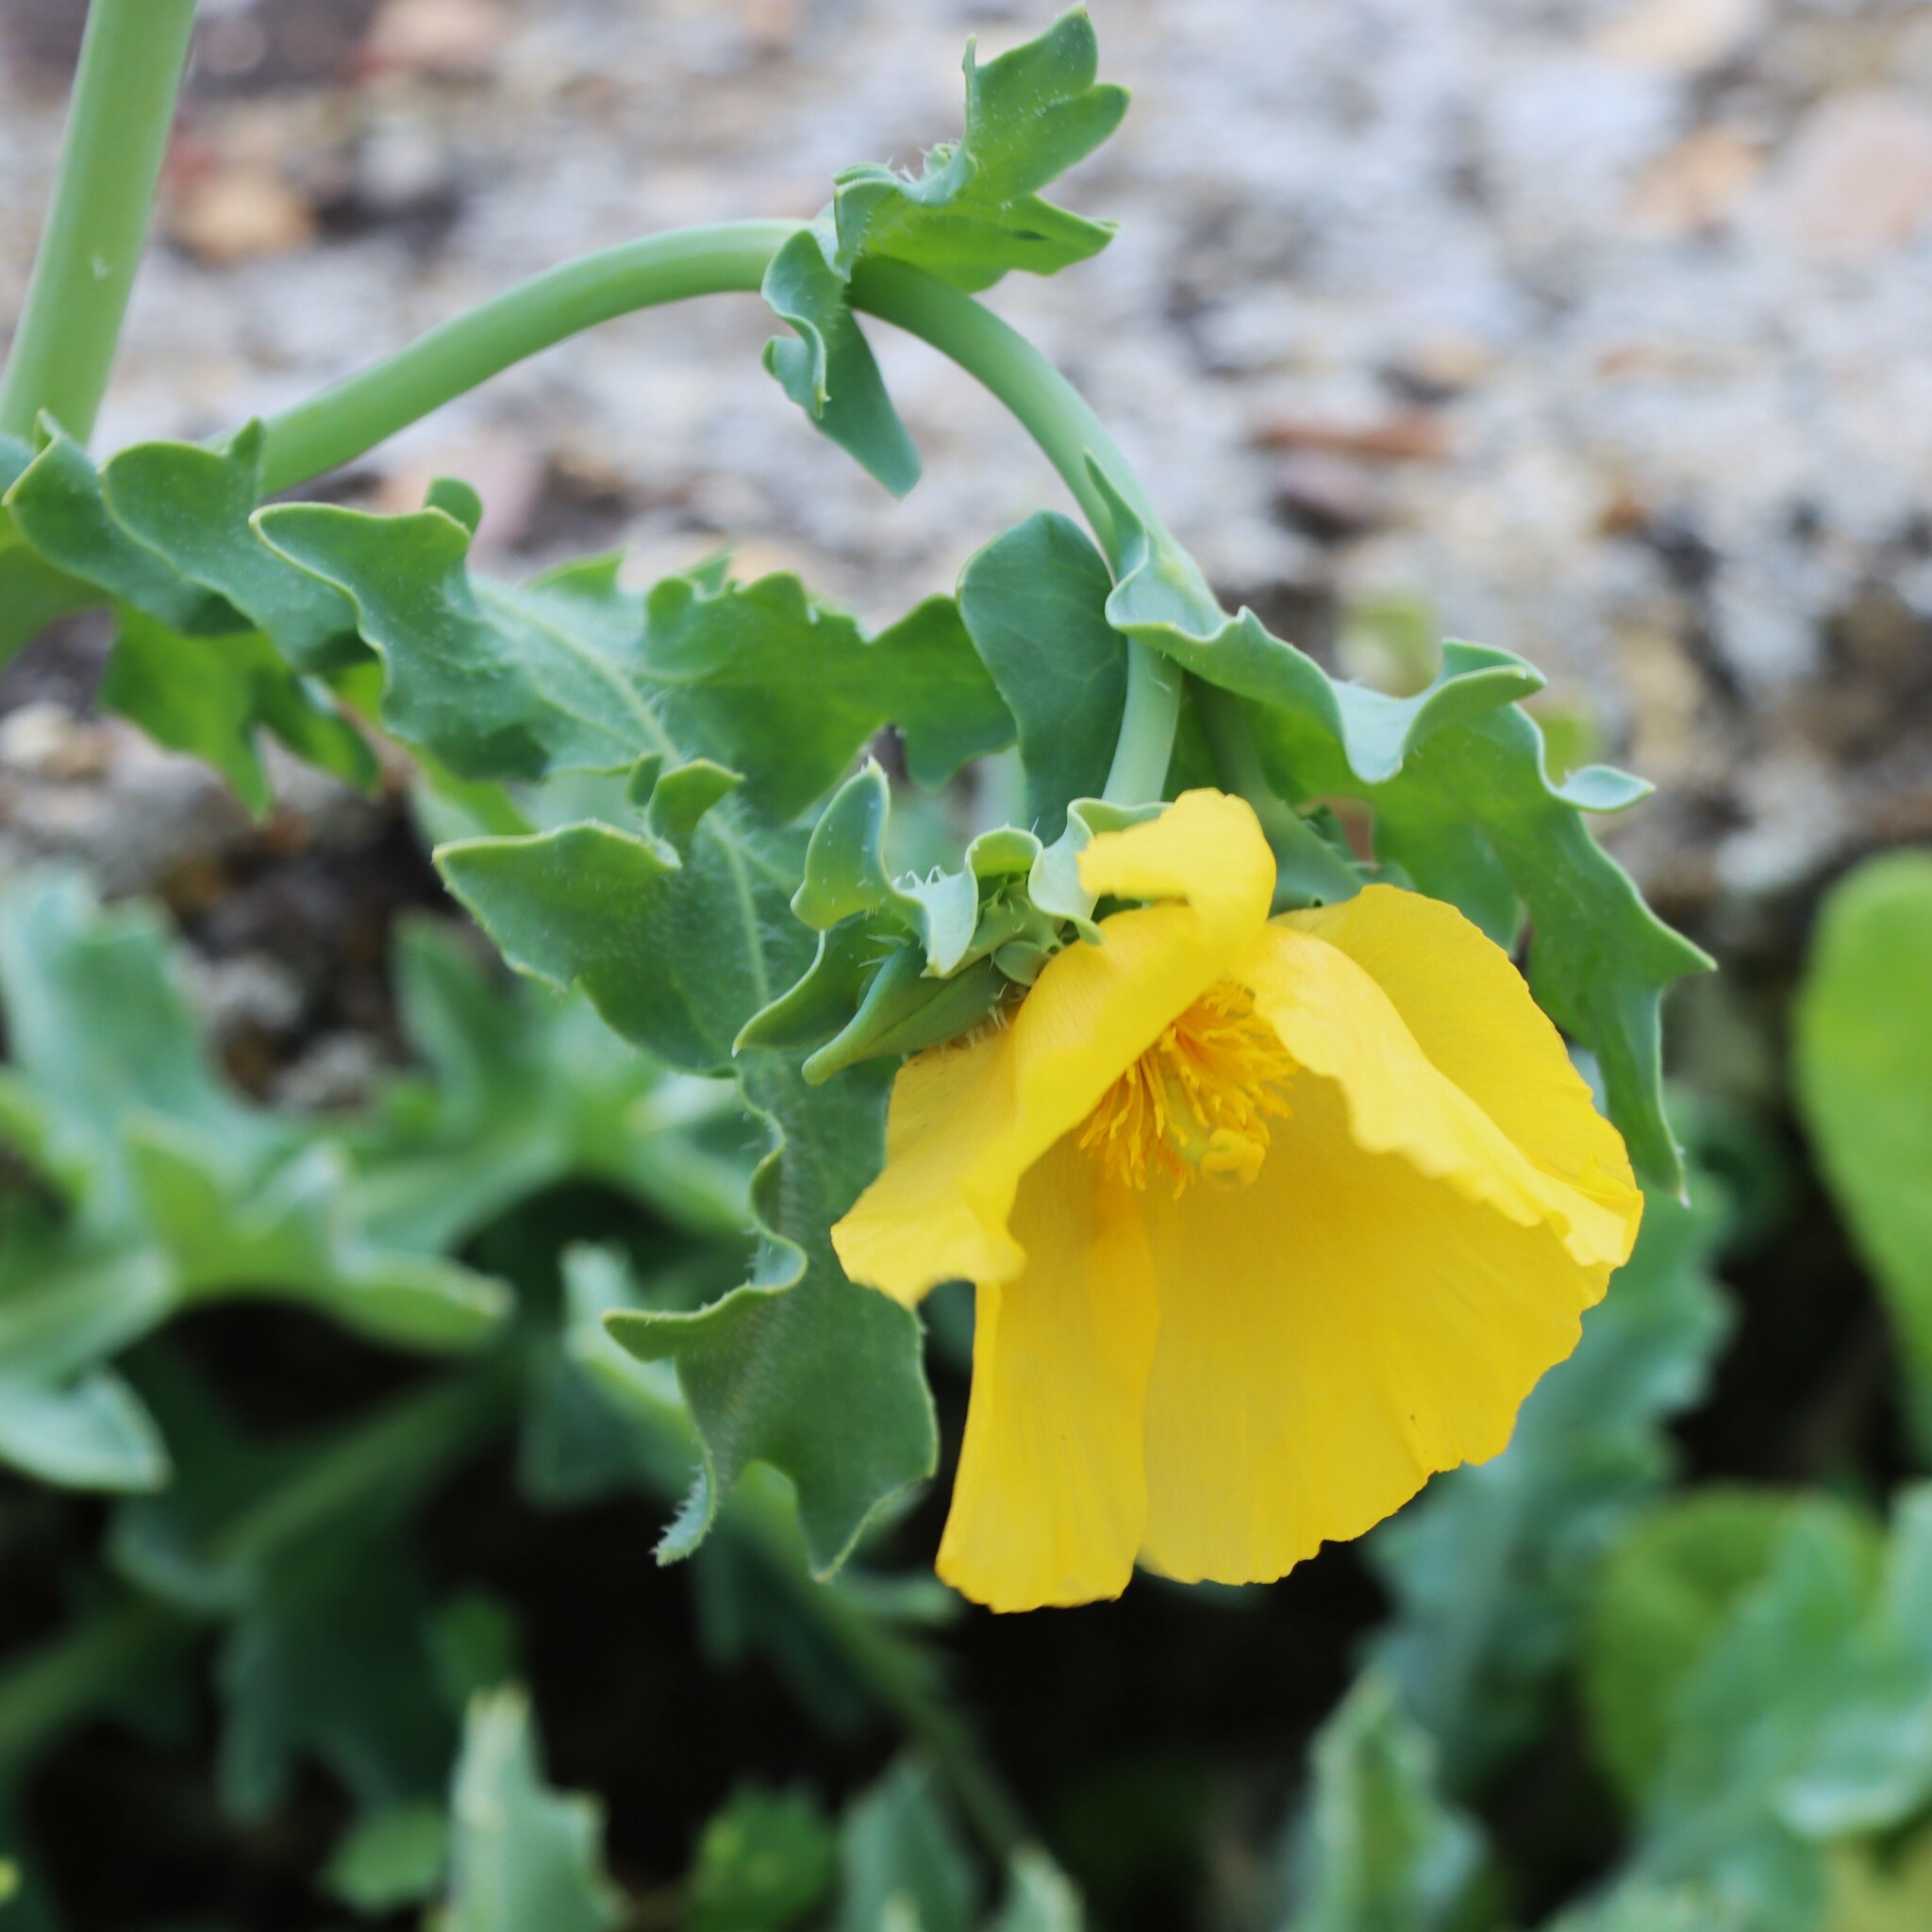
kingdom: Plantae
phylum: Tracheophyta
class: Magnoliopsida
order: Ranunculales
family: Papaveraceae
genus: Glaucium
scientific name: Glaucium flavum
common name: Yellow horned-poppy
